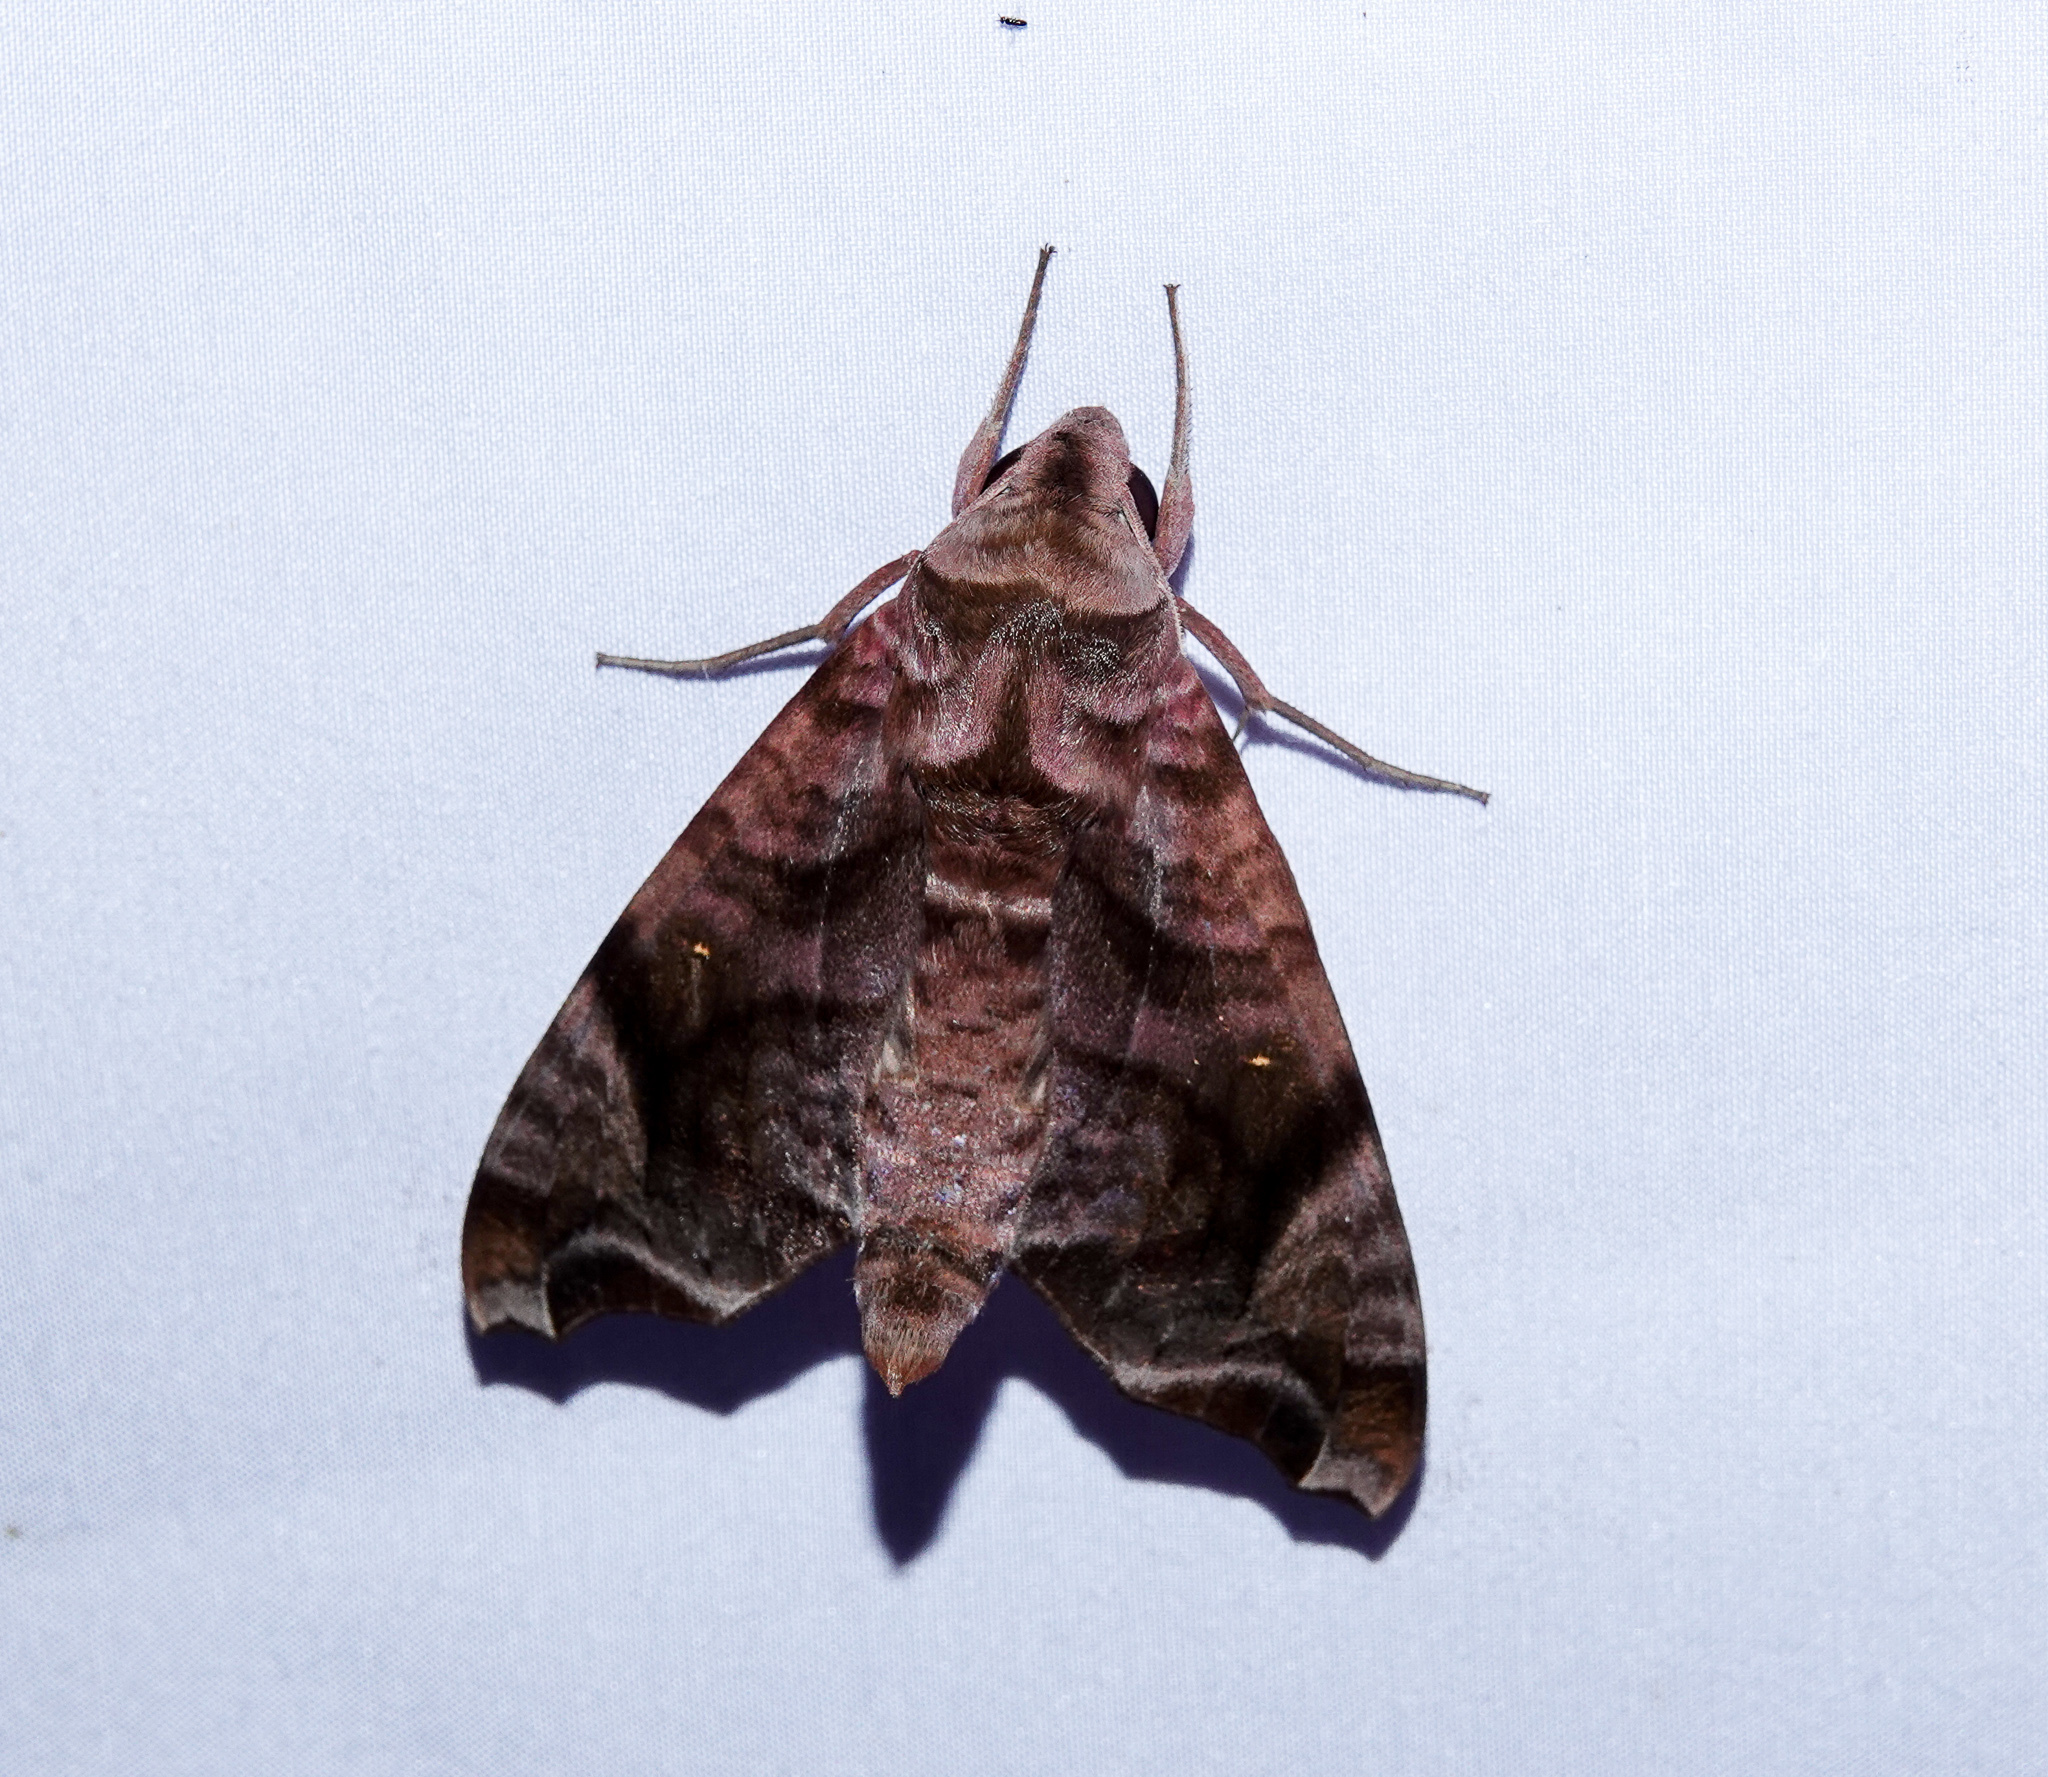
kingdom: Animalia
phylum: Arthropoda
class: Insecta
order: Lepidoptera
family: Sphingidae
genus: Acosmeryx
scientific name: Acosmeryx anceus
